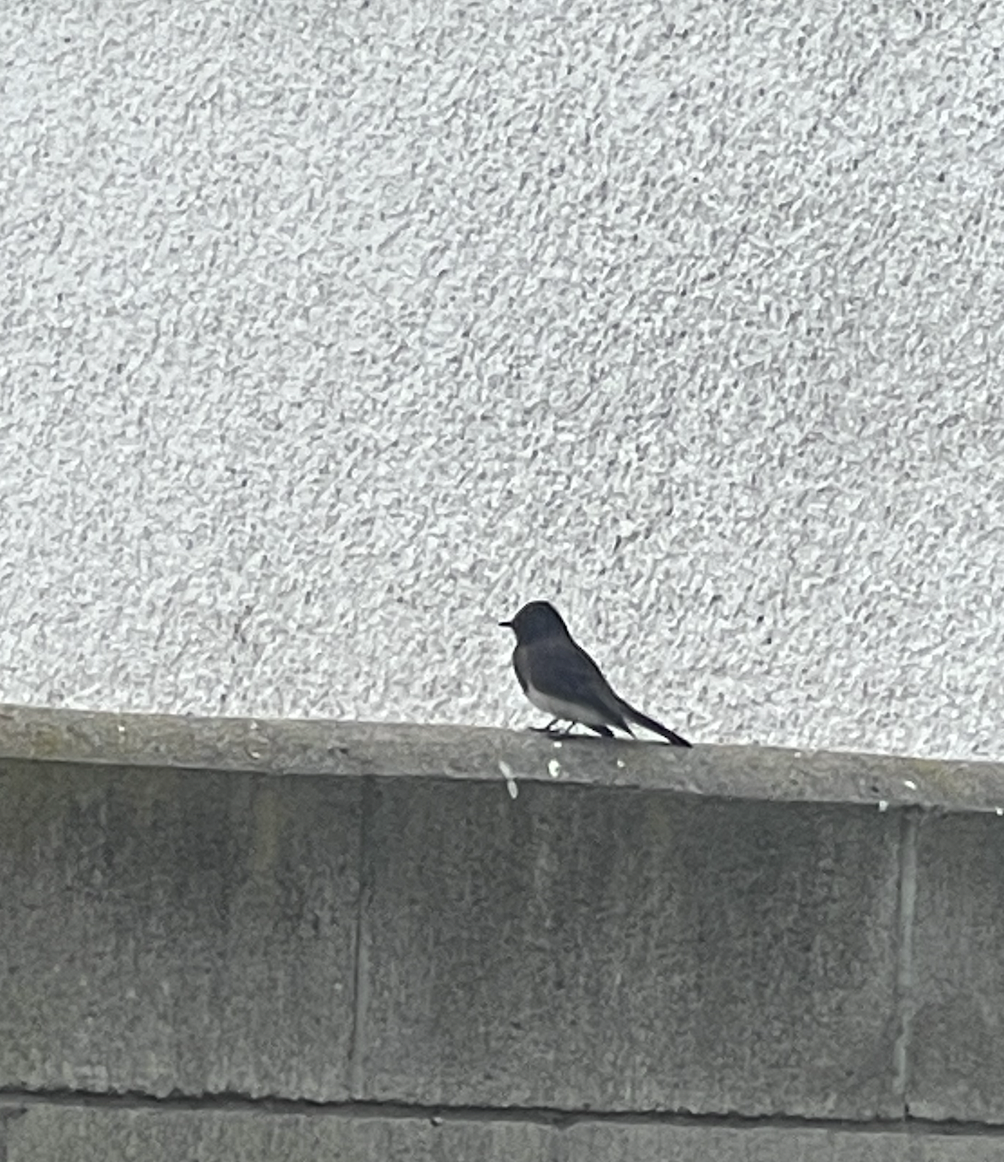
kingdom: Animalia
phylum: Chordata
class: Aves
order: Passeriformes
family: Tyrannidae
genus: Sayornis
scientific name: Sayornis nigricans
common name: Black phoebe
